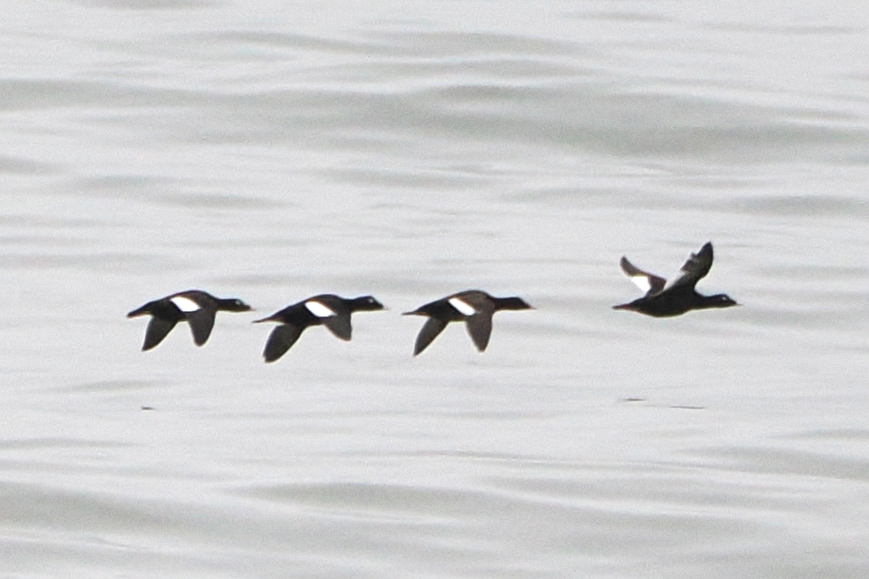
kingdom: Animalia
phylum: Chordata
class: Aves
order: Anseriformes
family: Anatidae
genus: Melanitta
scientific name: Melanitta deglandi
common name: White-winged scoter
